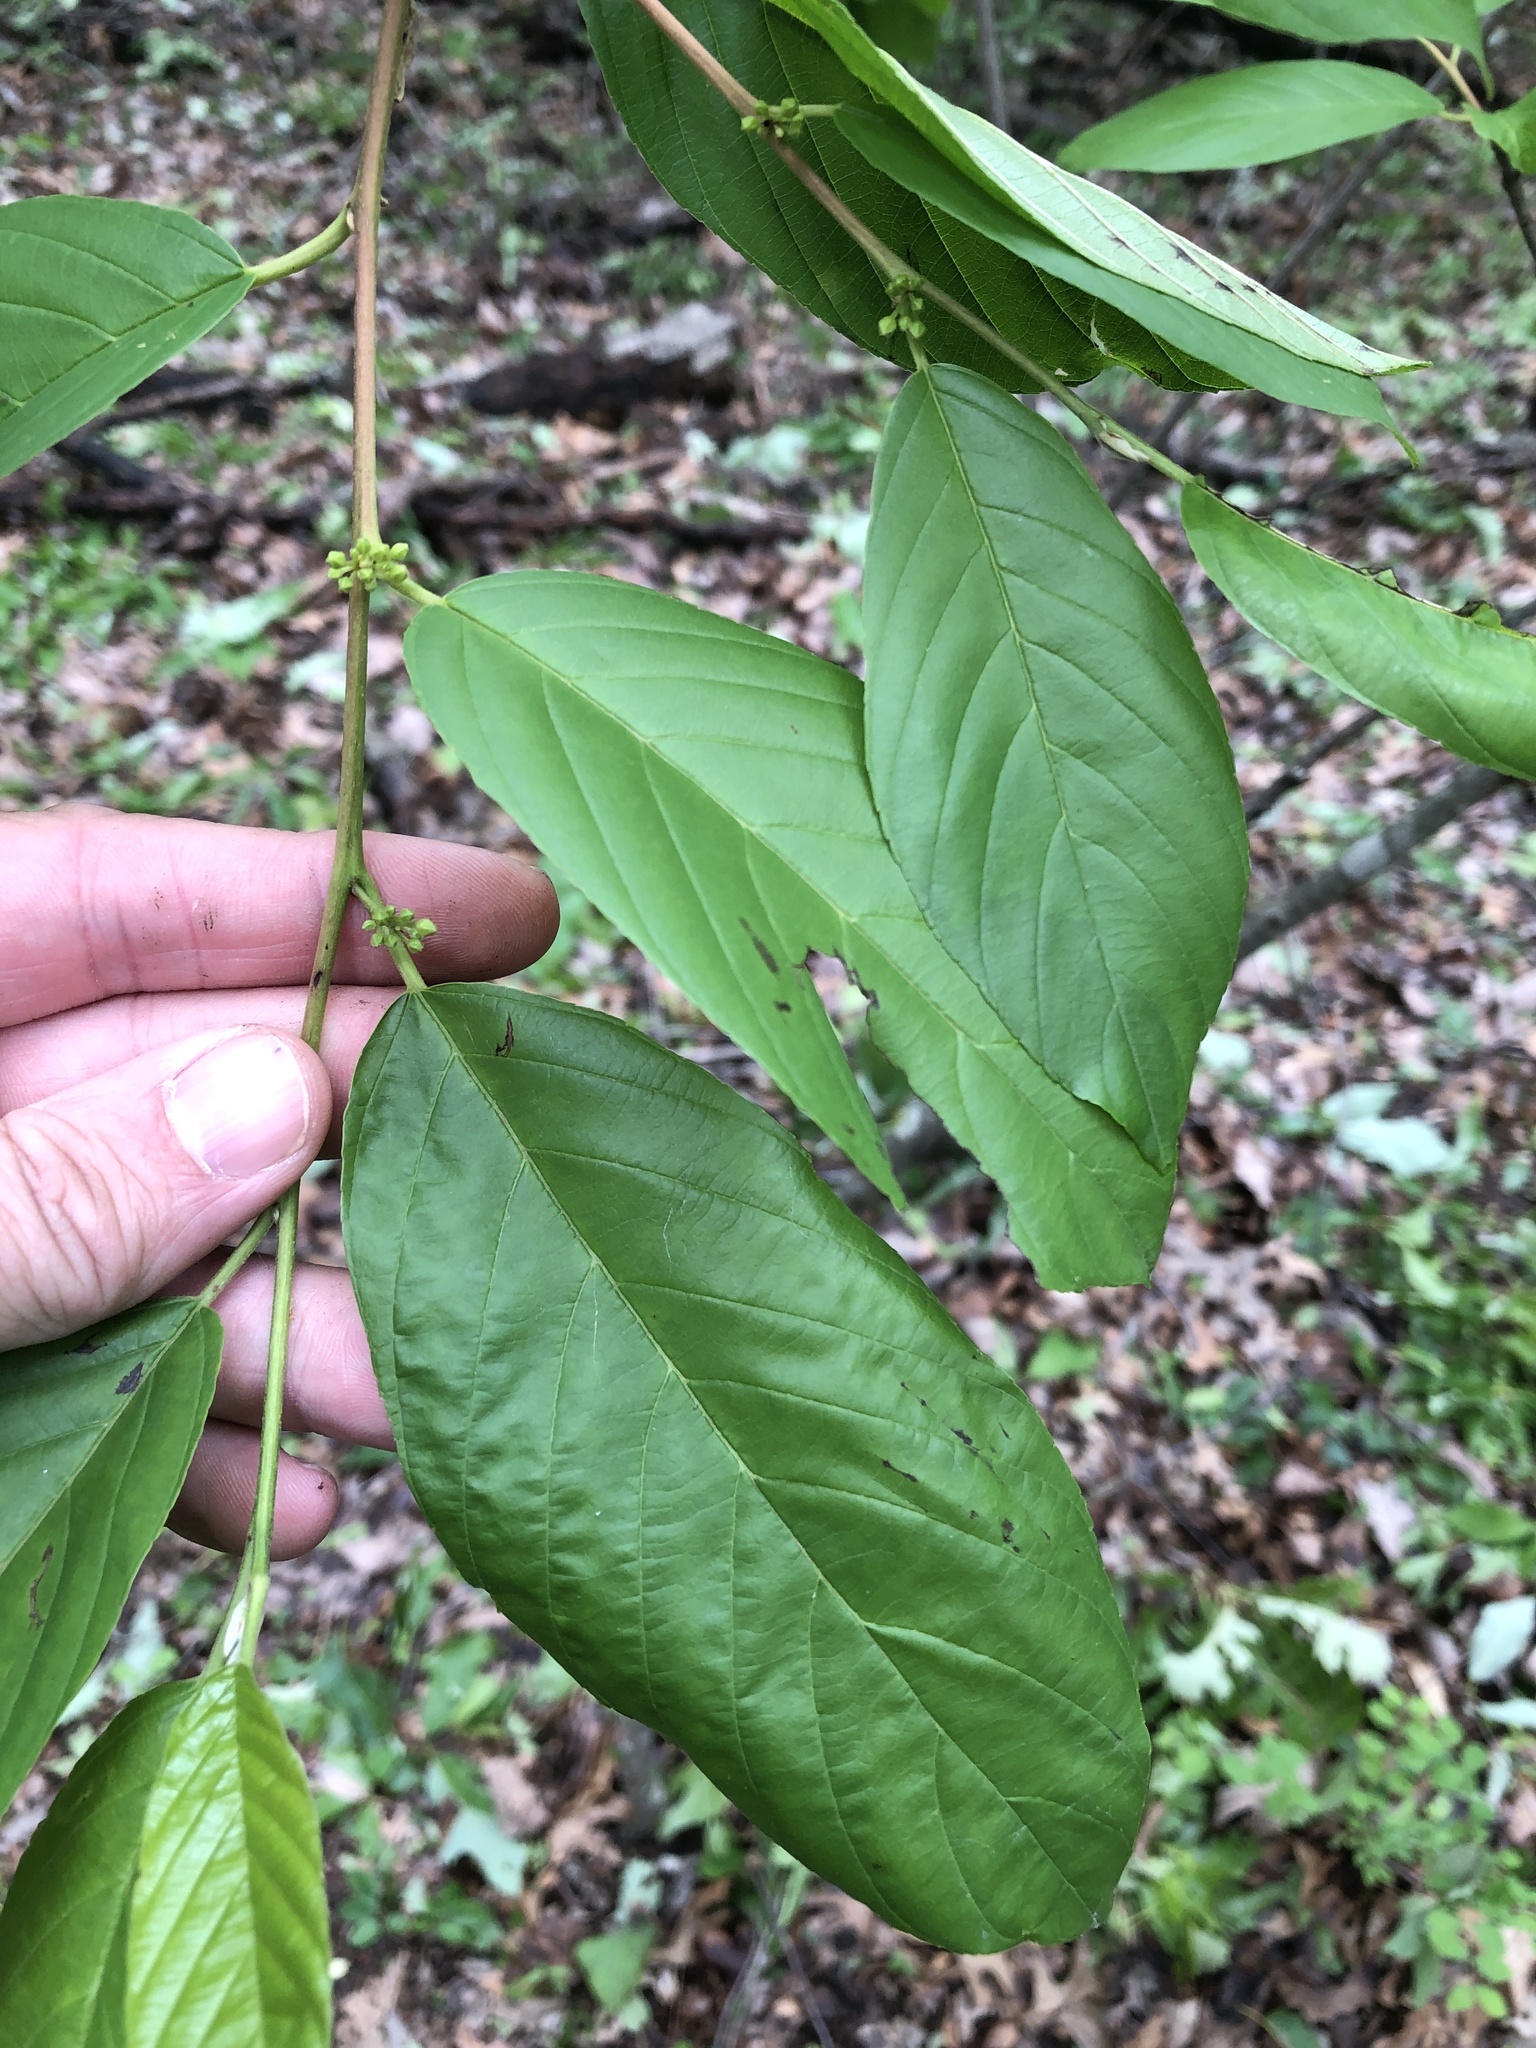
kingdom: Plantae
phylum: Tracheophyta
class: Magnoliopsida
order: Rosales
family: Rhamnaceae
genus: Frangula
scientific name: Frangula caroliniana
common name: Carolina buckthorn
